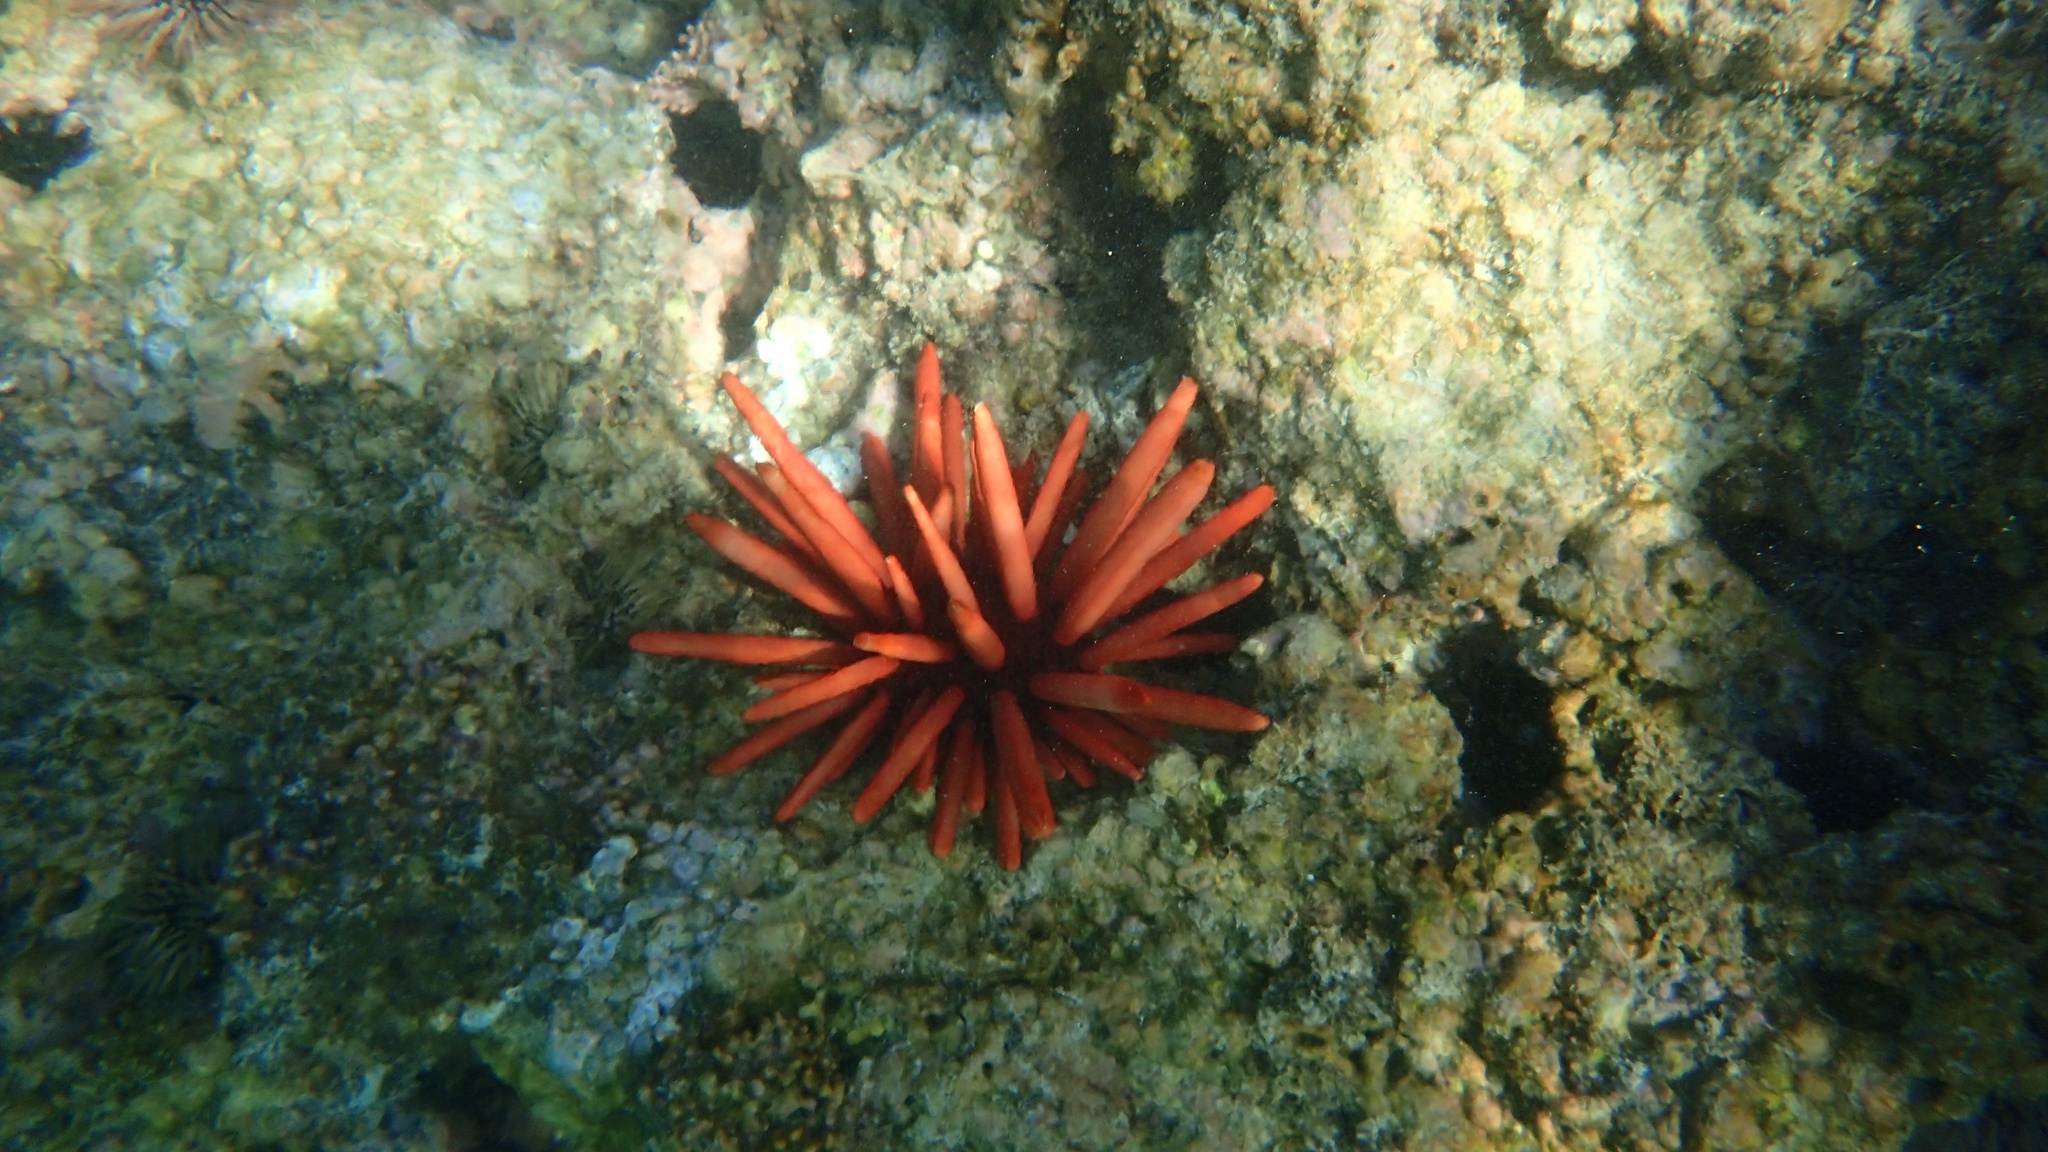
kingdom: Animalia
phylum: Echinodermata
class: Echinoidea
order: Camarodonta
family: Echinometridae
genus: Heterocentrotus
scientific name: Heterocentrotus mamillatus
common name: Slate pencil urchin
